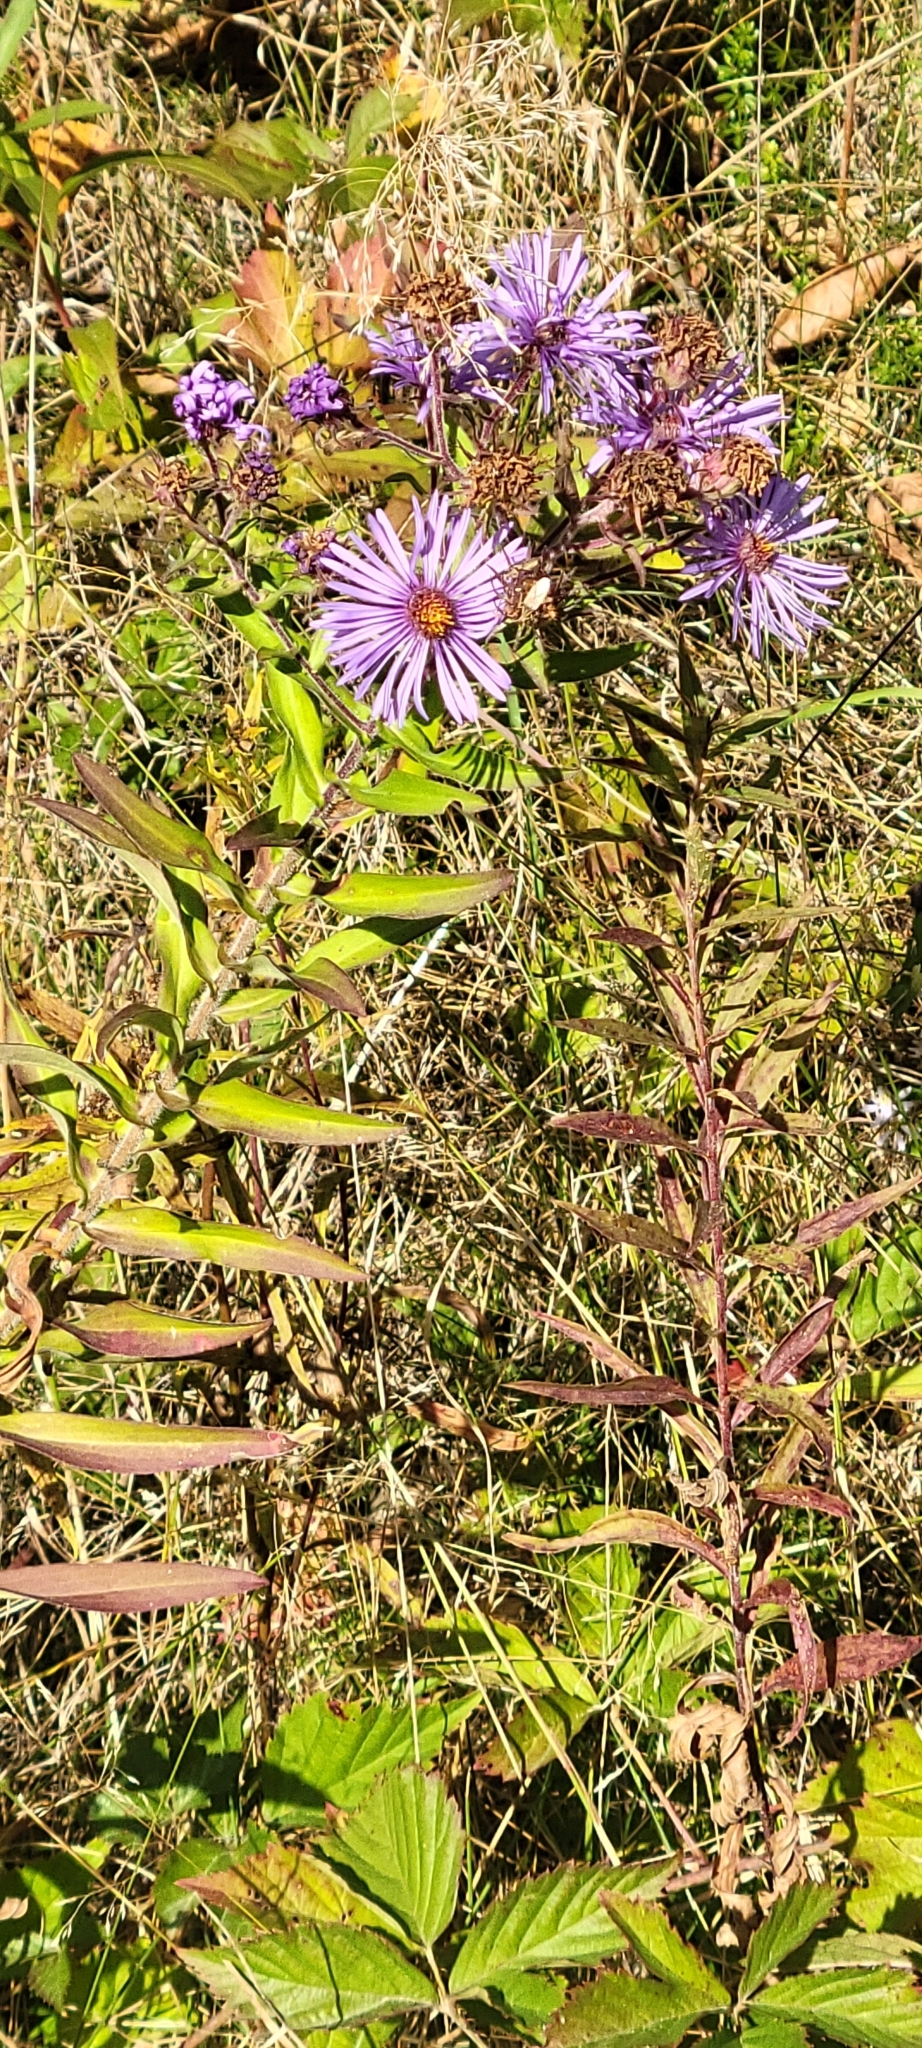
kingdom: Plantae
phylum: Tracheophyta
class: Magnoliopsida
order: Asterales
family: Asteraceae
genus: Symphyotrichum
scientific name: Symphyotrichum novae-angliae
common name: Michaelmas daisy
